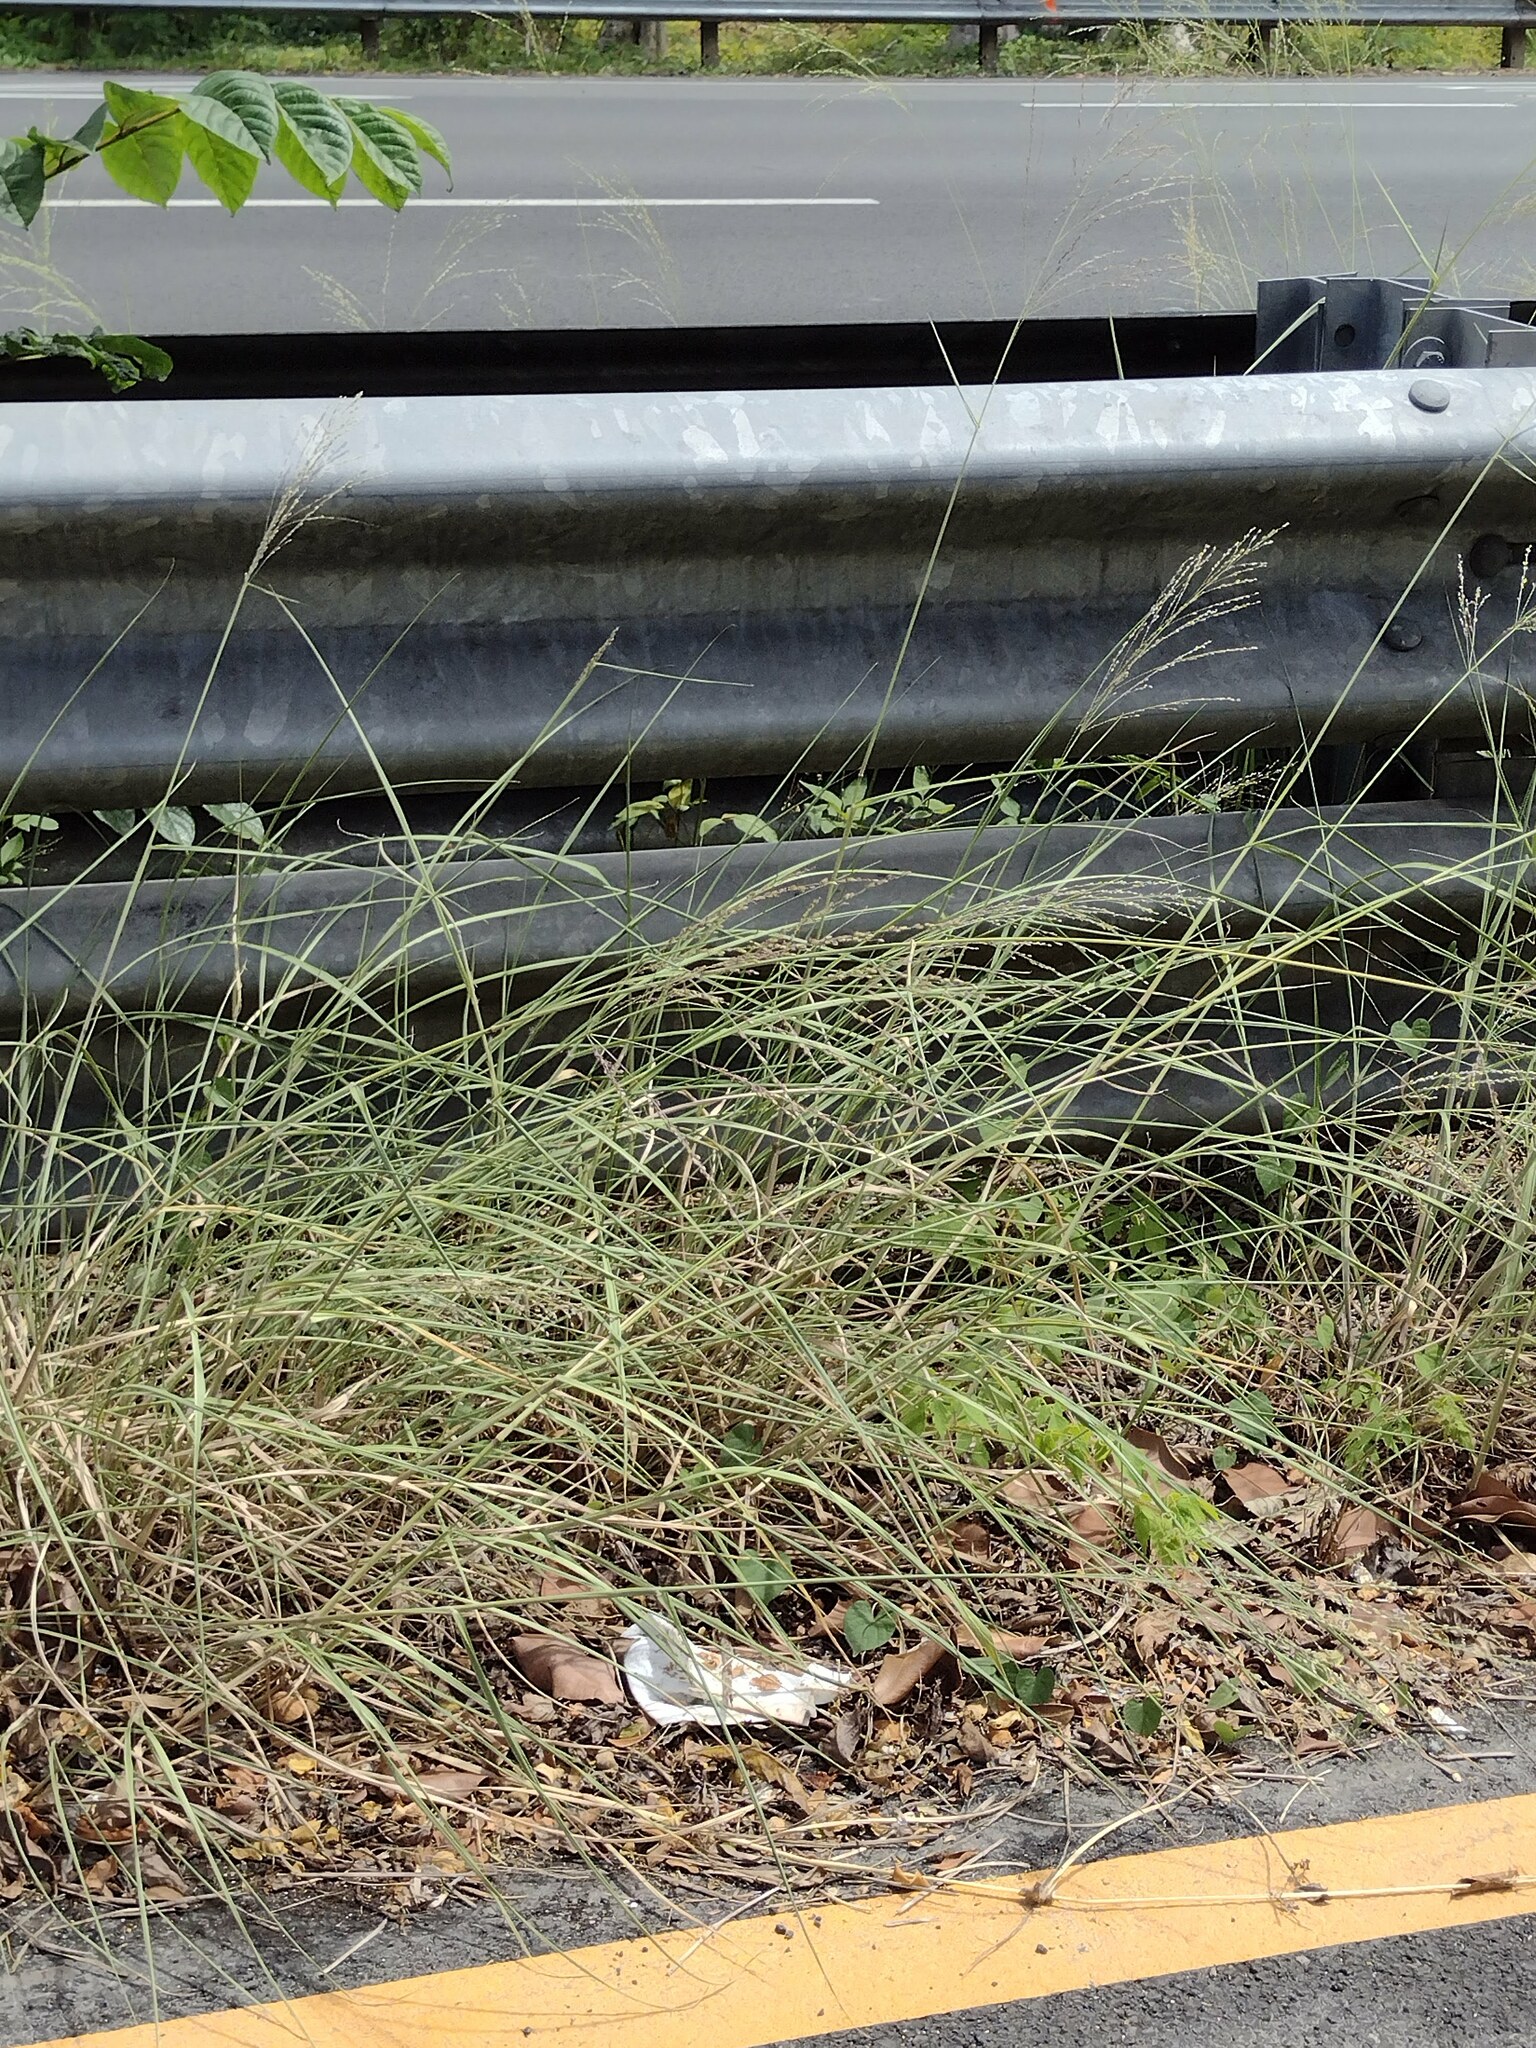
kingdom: Plantae
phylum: Tracheophyta
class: Liliopsida
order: Poales
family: Poaceae
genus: Megathyrsus
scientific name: Megathyrsus maximus
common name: Guineagrass
